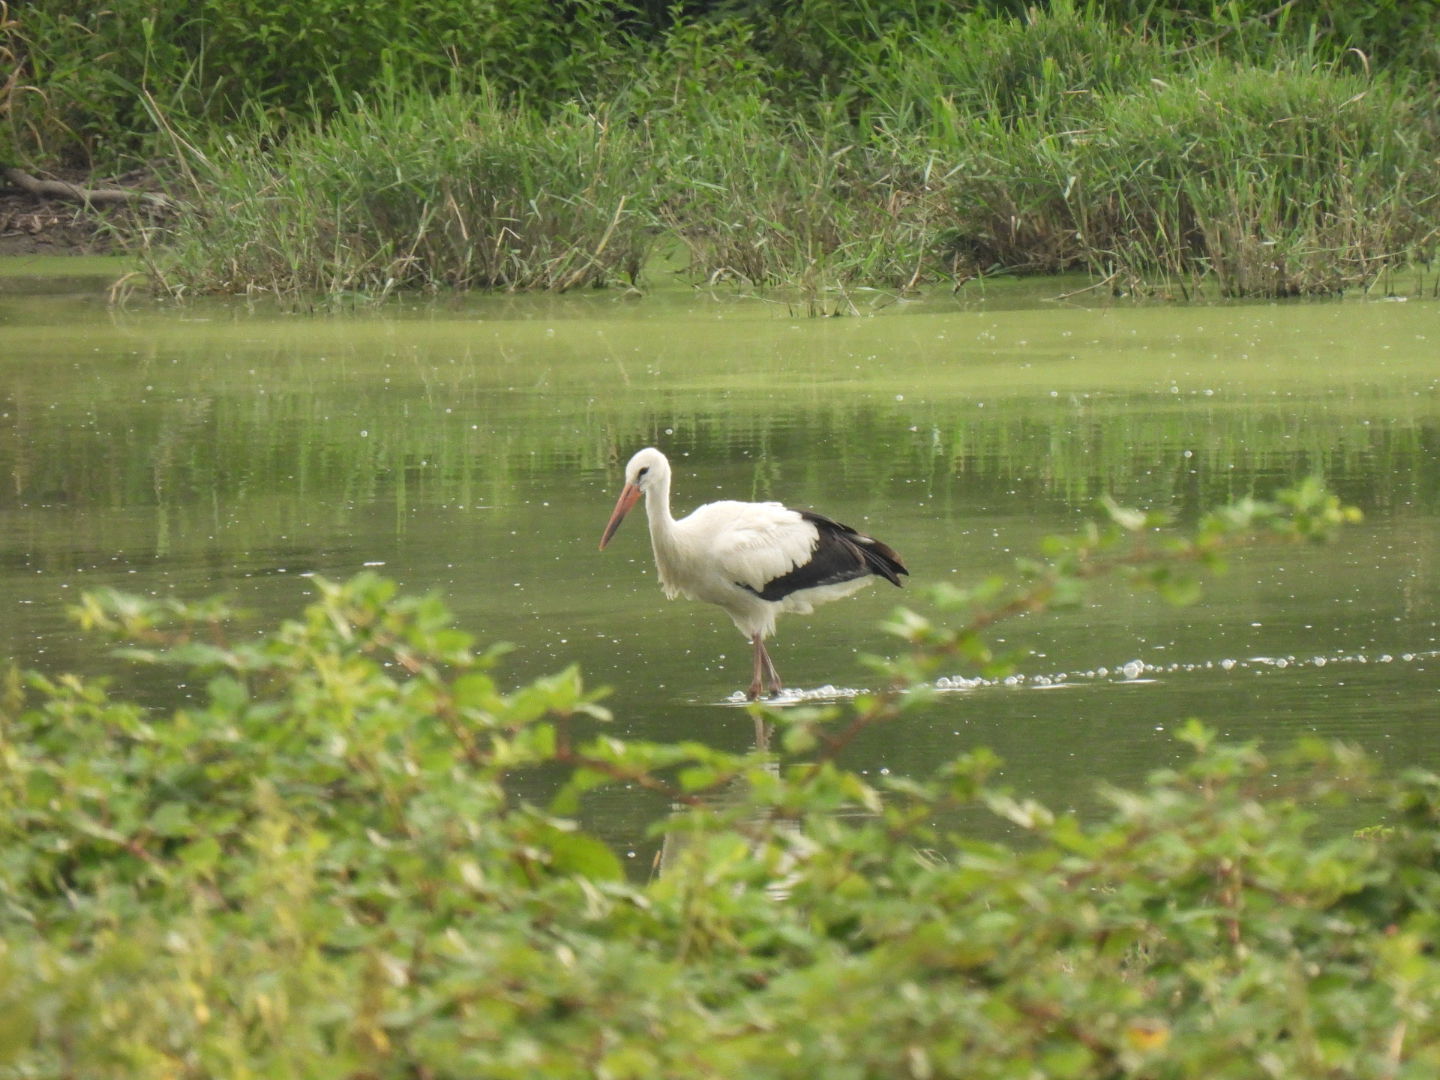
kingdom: Animalia
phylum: Chordata
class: Aves
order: Ciconiiformes
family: Ciconiidae
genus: Ciconia
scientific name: Ciconia ciconia
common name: White stork
